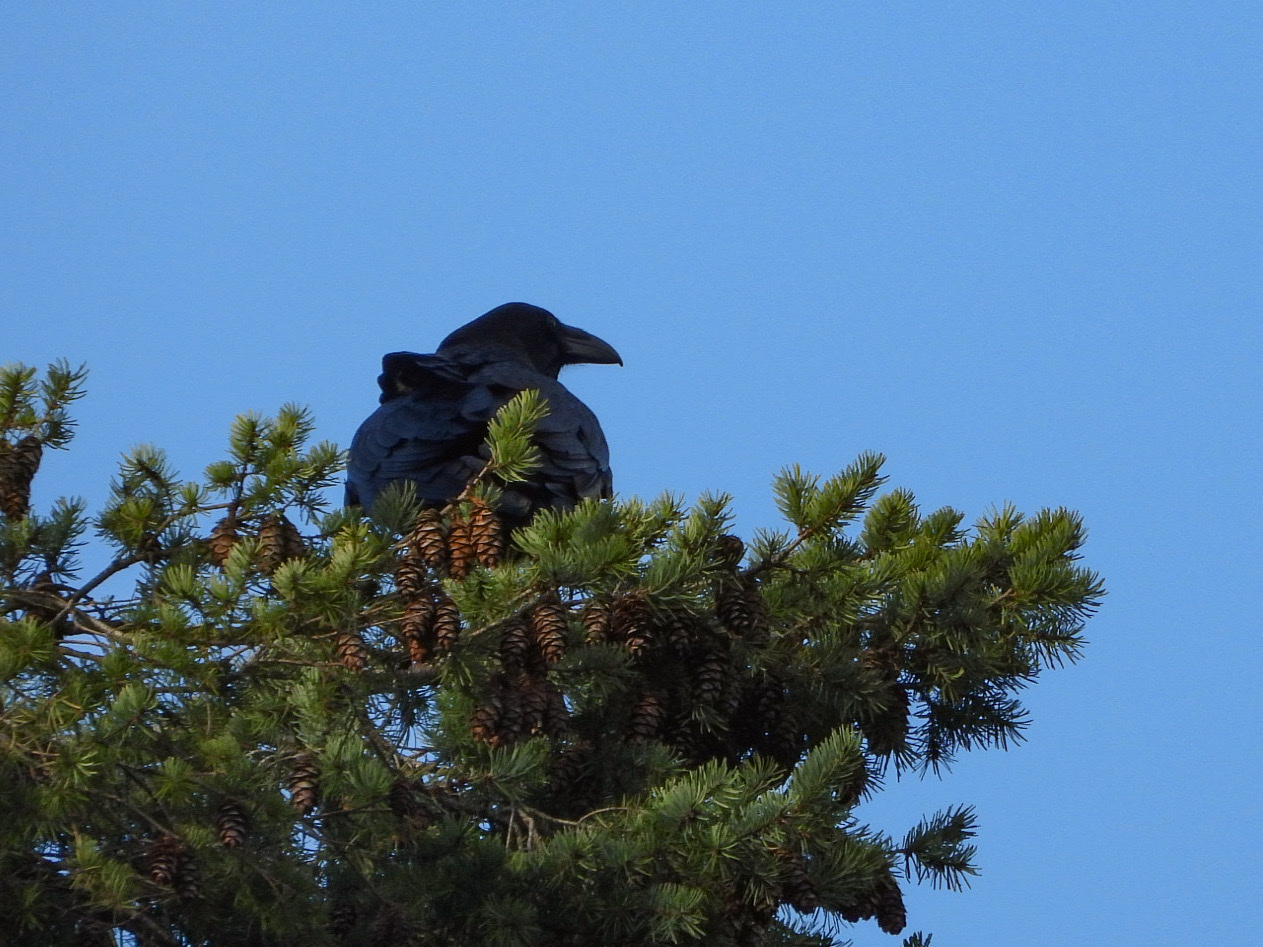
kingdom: Animalia
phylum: Chordata
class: Aves
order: Passeriformes
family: Corvidae
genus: Corvus
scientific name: Corvus corax
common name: Common raven
